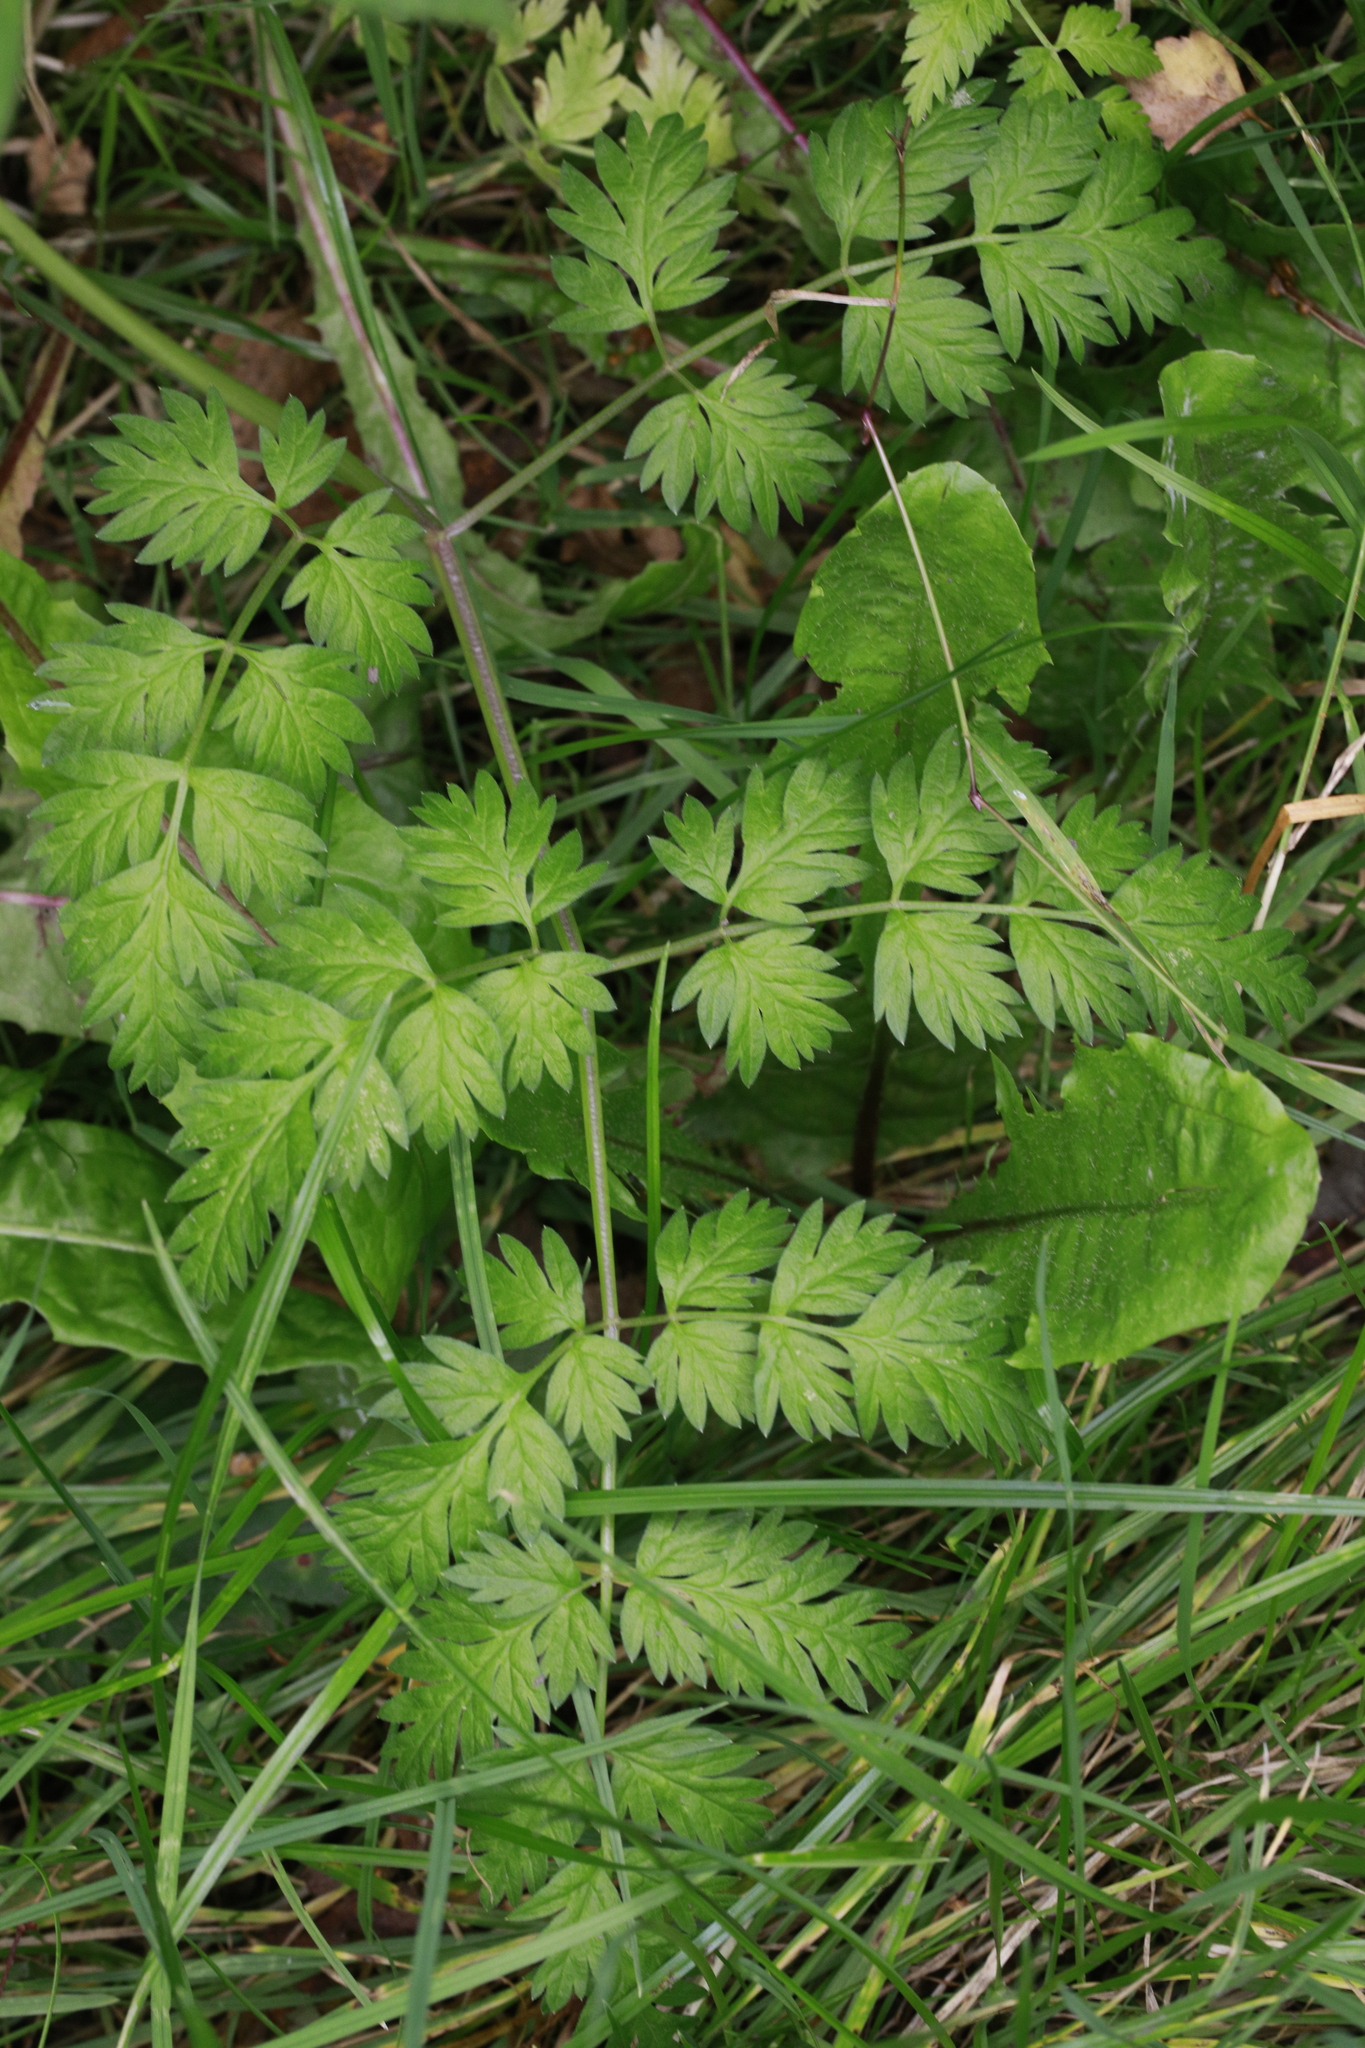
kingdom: Plantae
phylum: Tracheophyta
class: Magnoliopsida
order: Apiales
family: Apiaceae
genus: Anthriscus
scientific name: Anthriscus sylvestris
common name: Cow parsley
